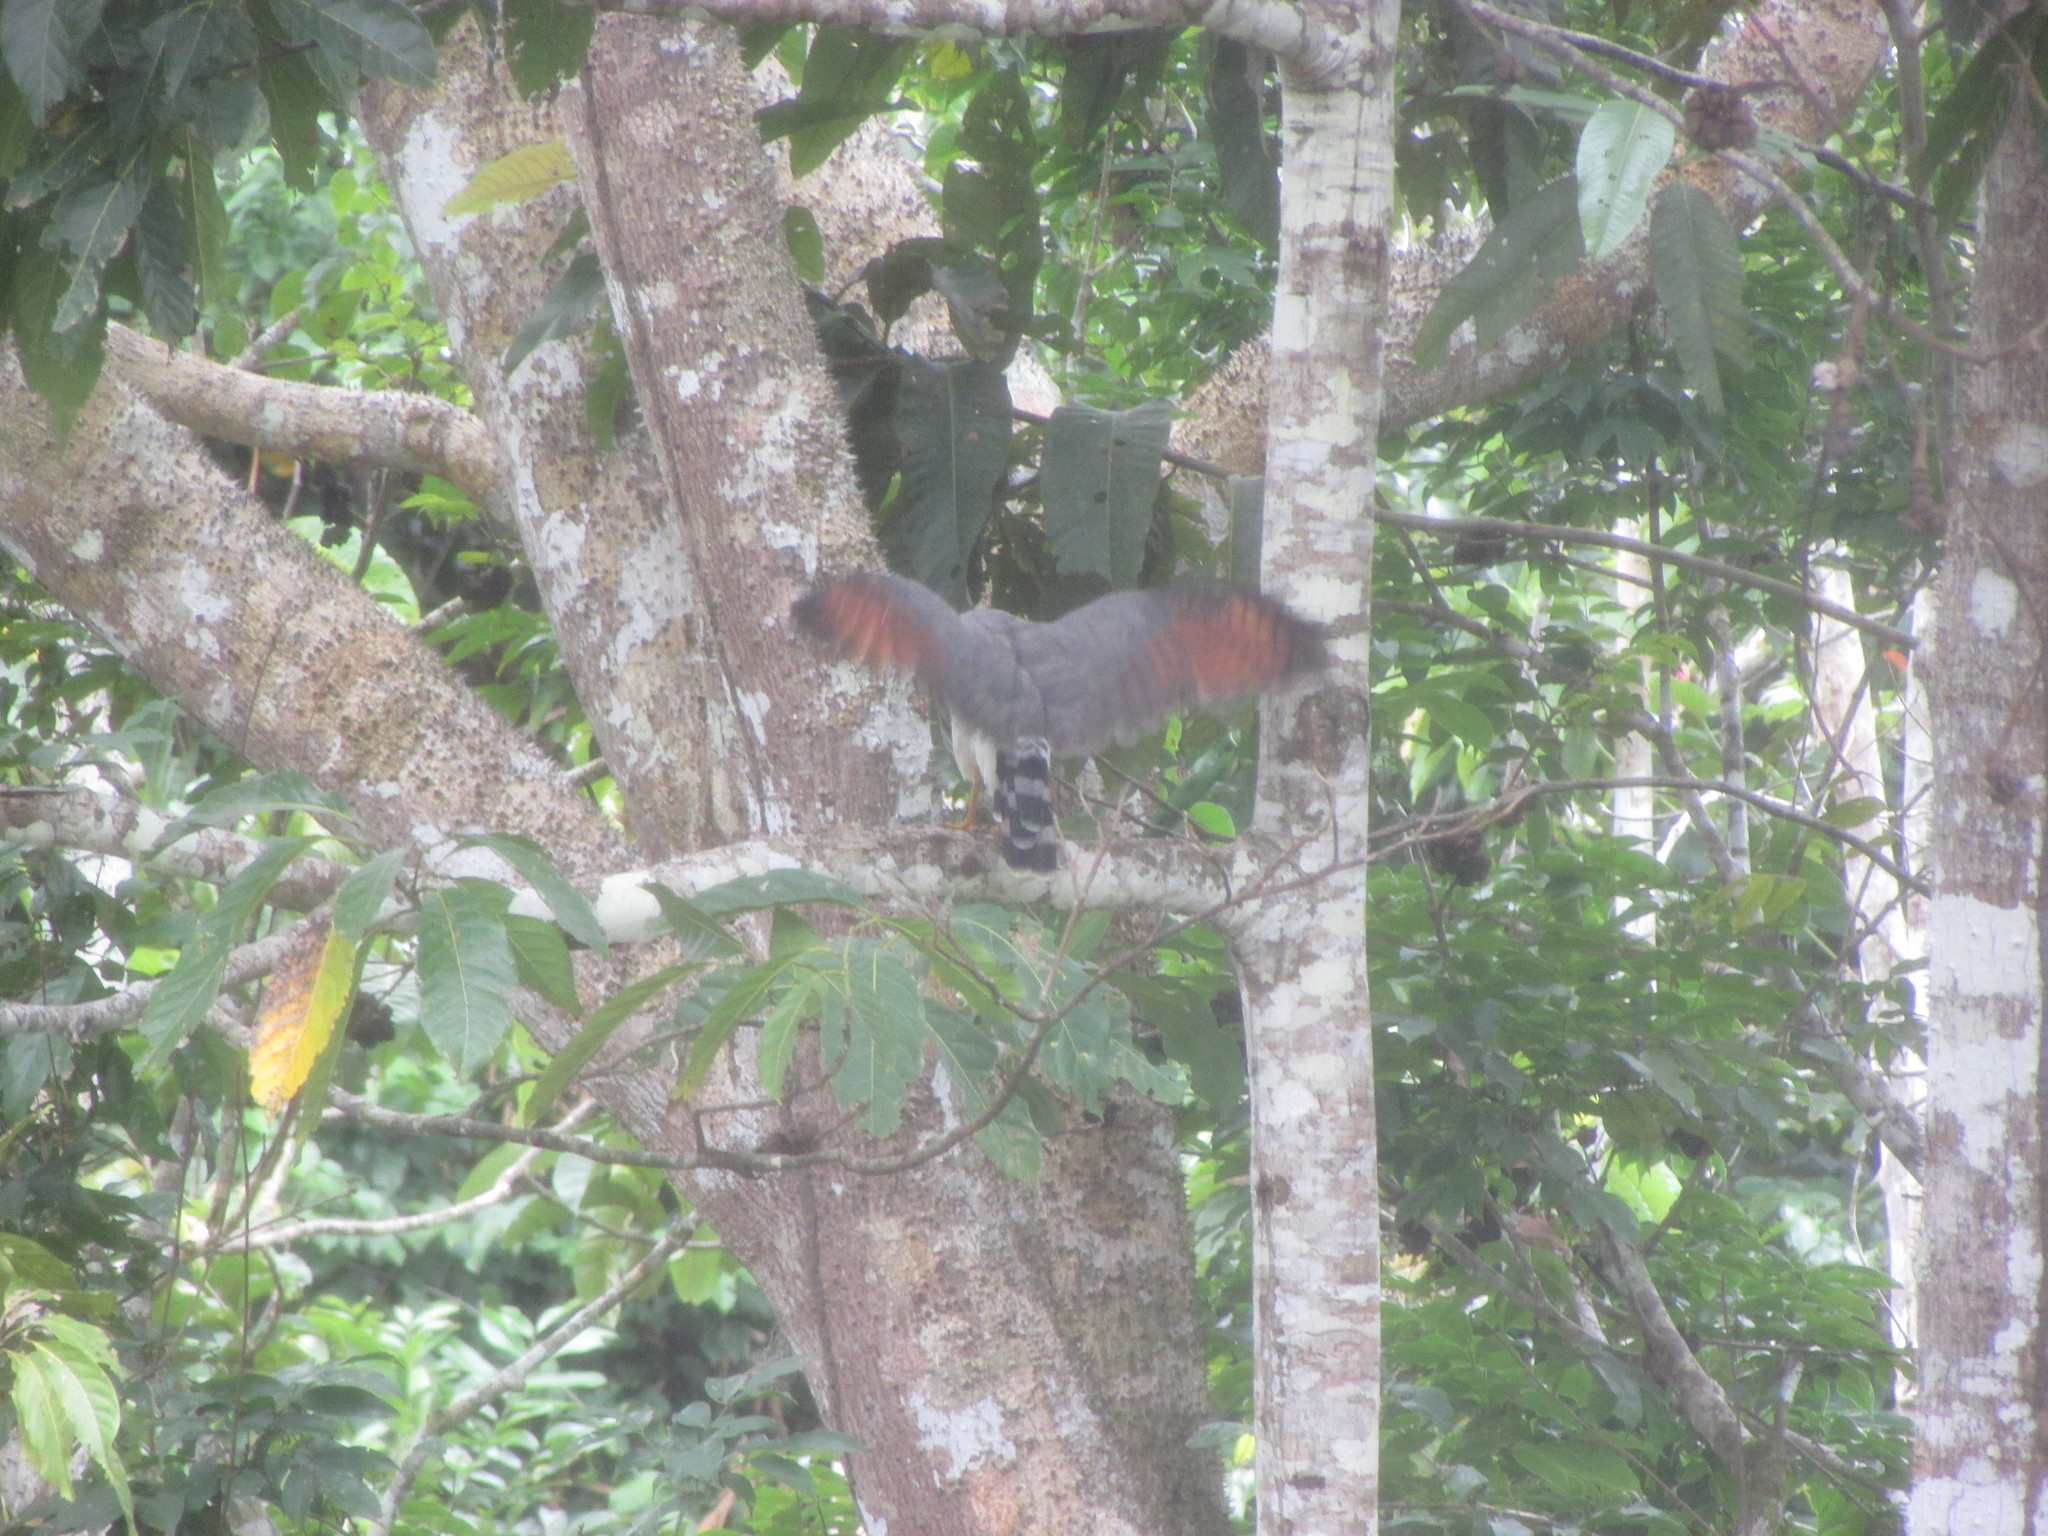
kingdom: Animalia
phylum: Chordata
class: Aves
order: Accipitriformes
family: Accipitridae
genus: Rupornis
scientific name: Rupornis magnirostris
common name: Roadside hawk
